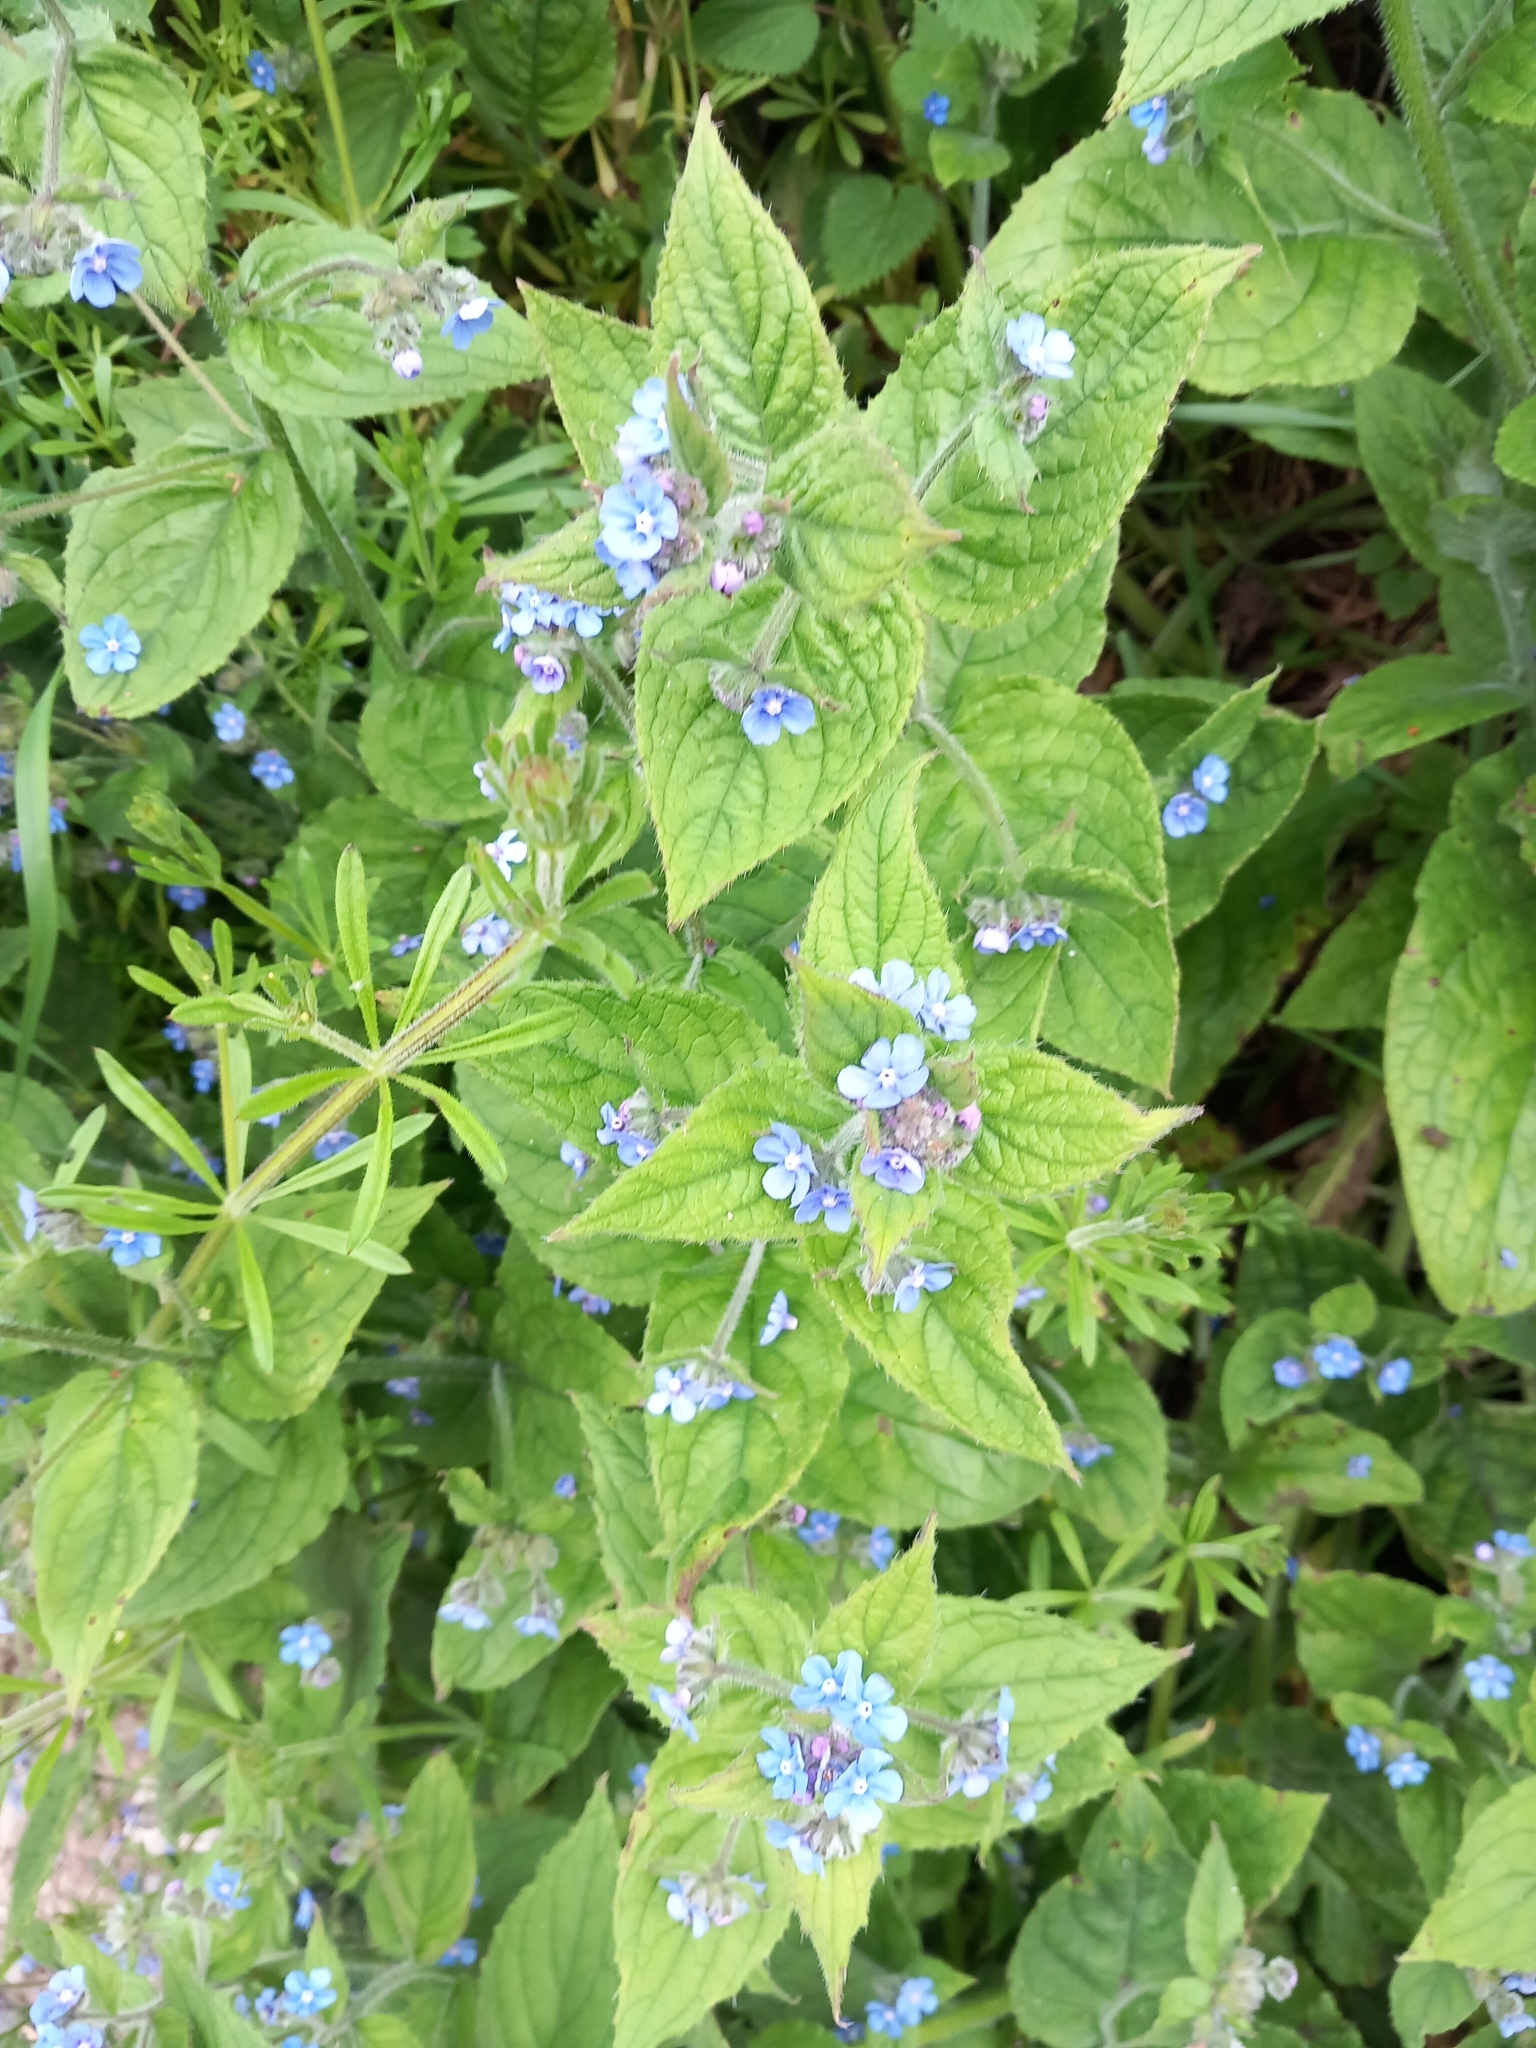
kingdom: Plantae
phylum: Tracheophyta
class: Magnoliopsida
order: Boraginales
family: Boraginaceae
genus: Pentaglottis
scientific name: Pentaglottis sempervirens
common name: Green alkanet
